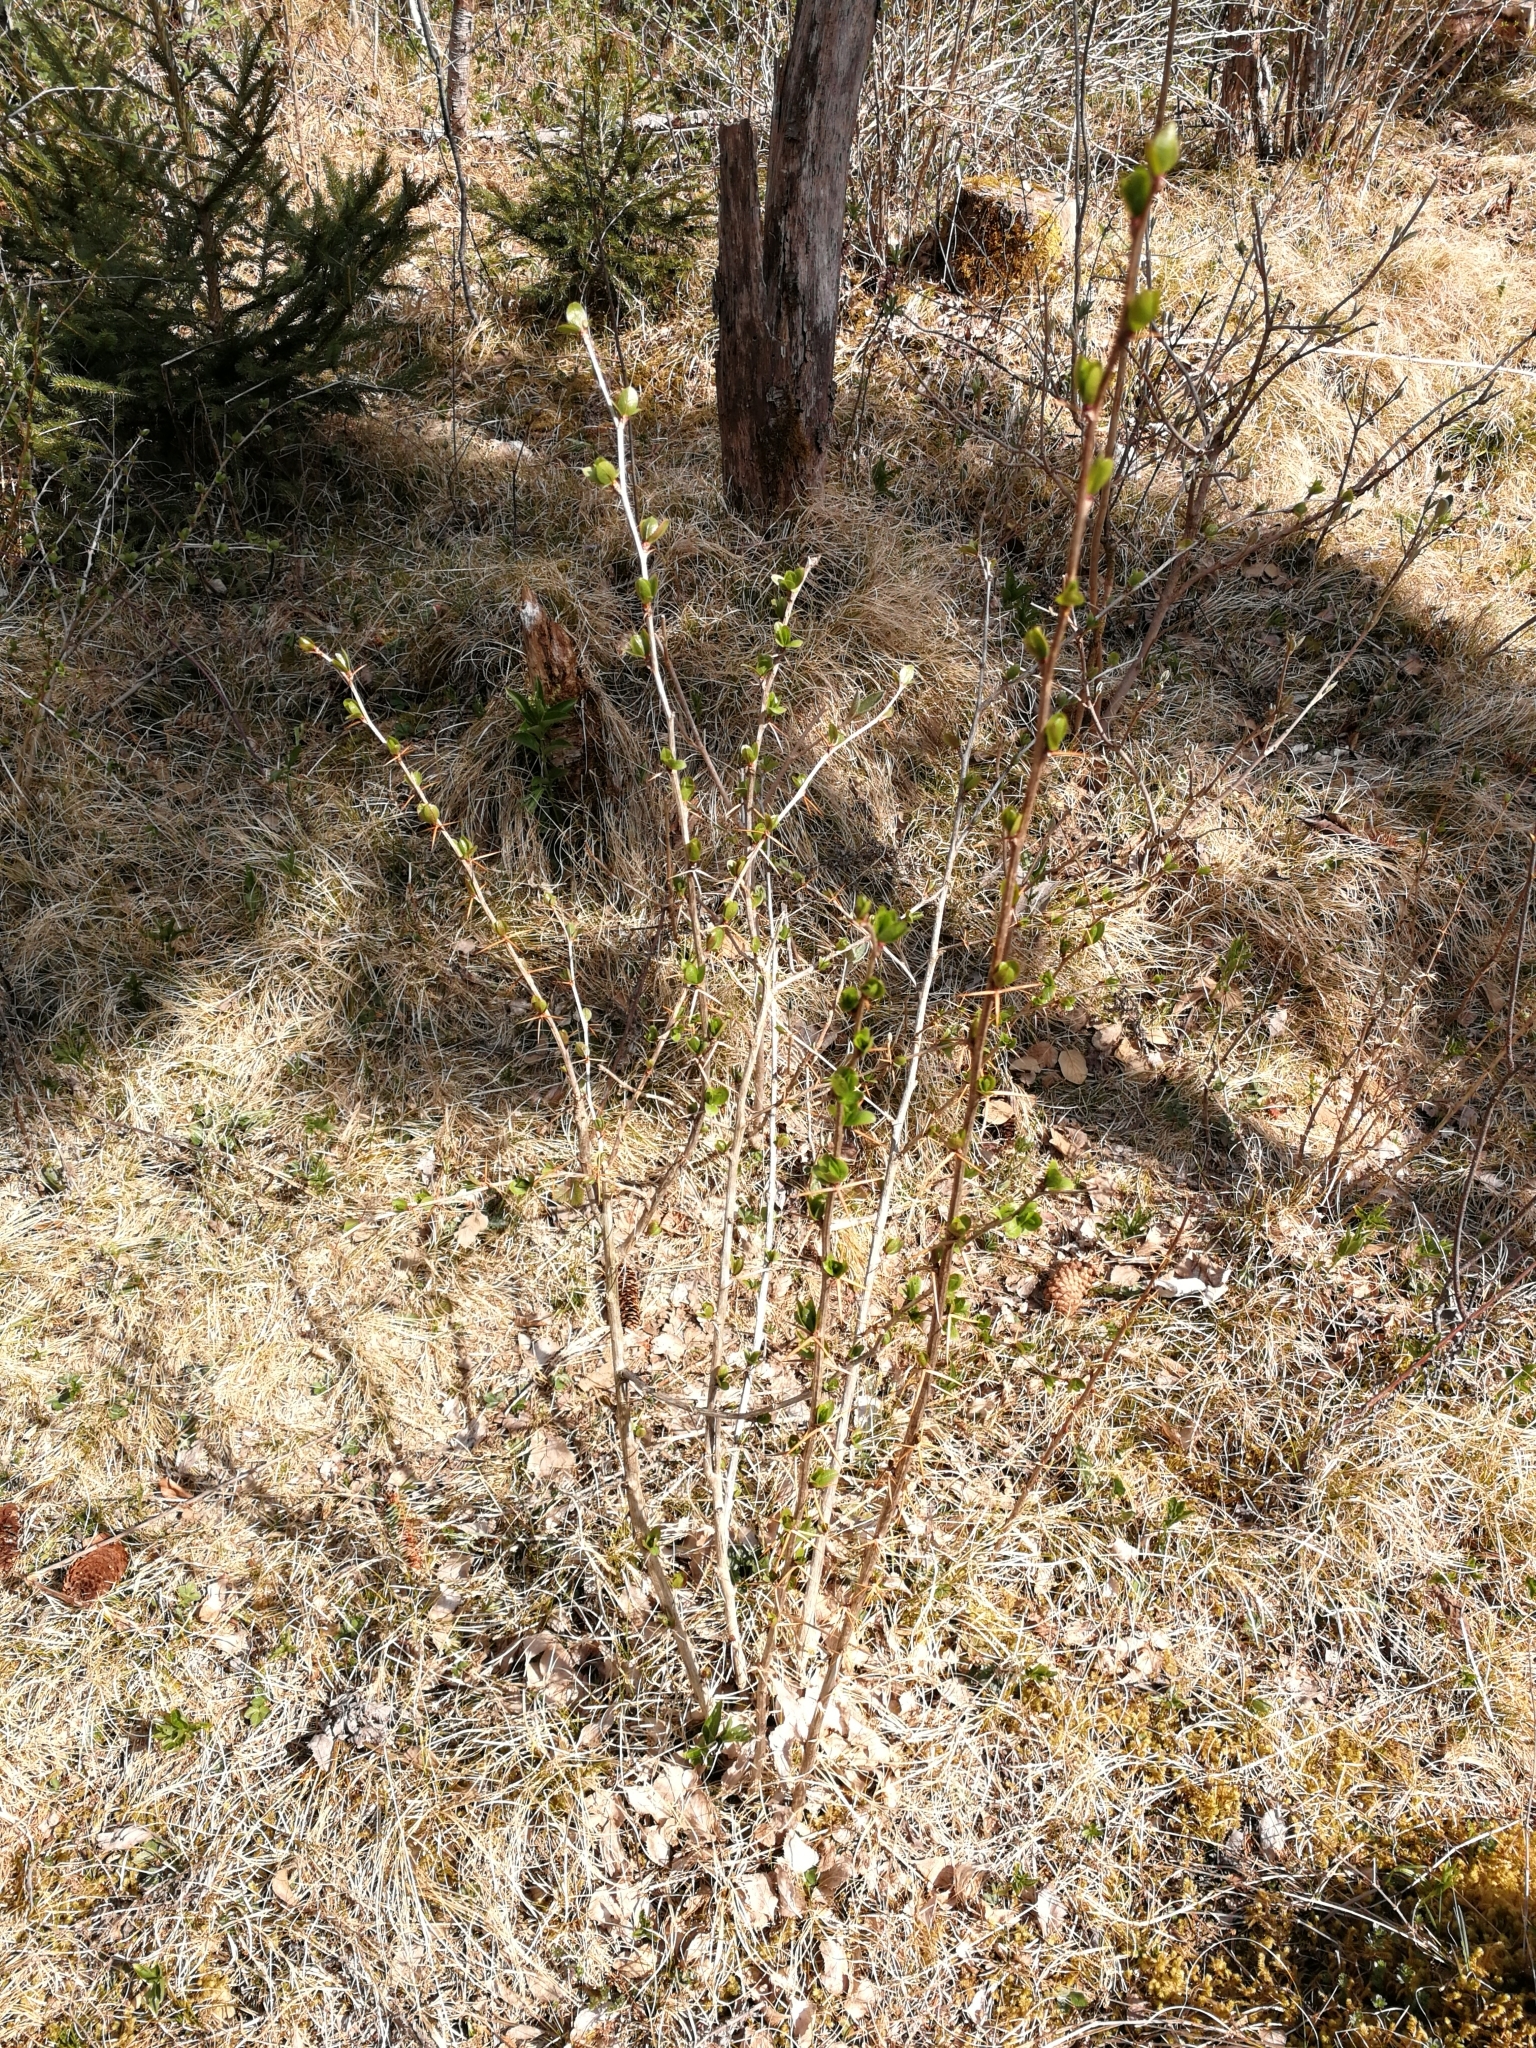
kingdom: Plantae
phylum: Tracheophyta
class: Magnoliopsida
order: Ranunculales
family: Berberidaceae
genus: Berberis
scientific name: Berberis vulgaris
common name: Barberry
